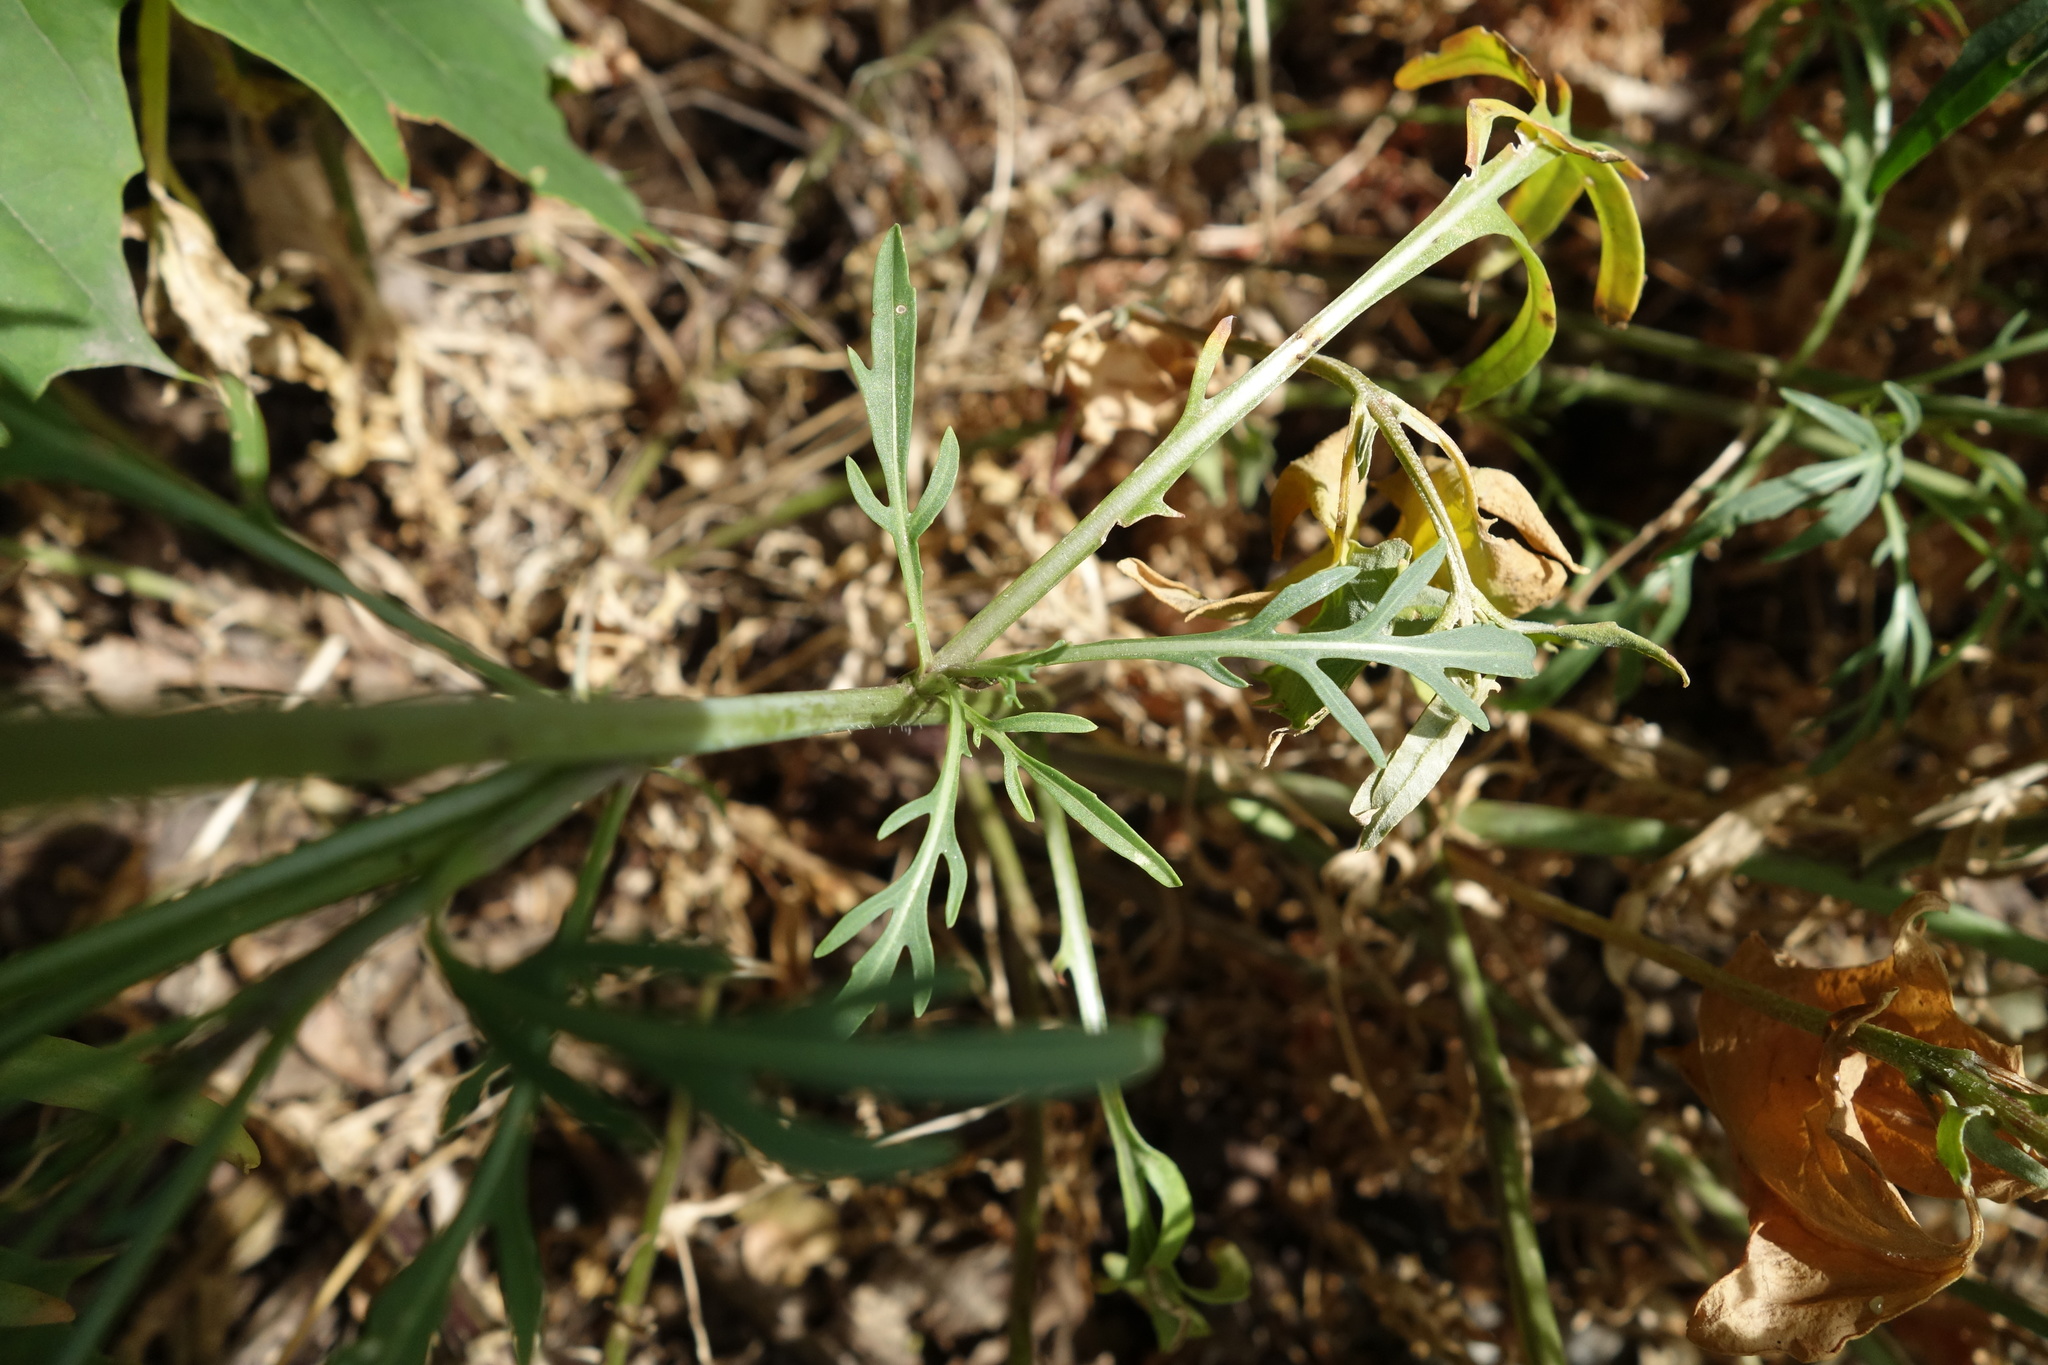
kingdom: Plantae
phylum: Tracheophyta
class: Magnoliopsida
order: Brassicales
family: Brassicaceae
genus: Diplotaxis
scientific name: Diplotaxis tenuifolia
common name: Perennial wall-rocket
